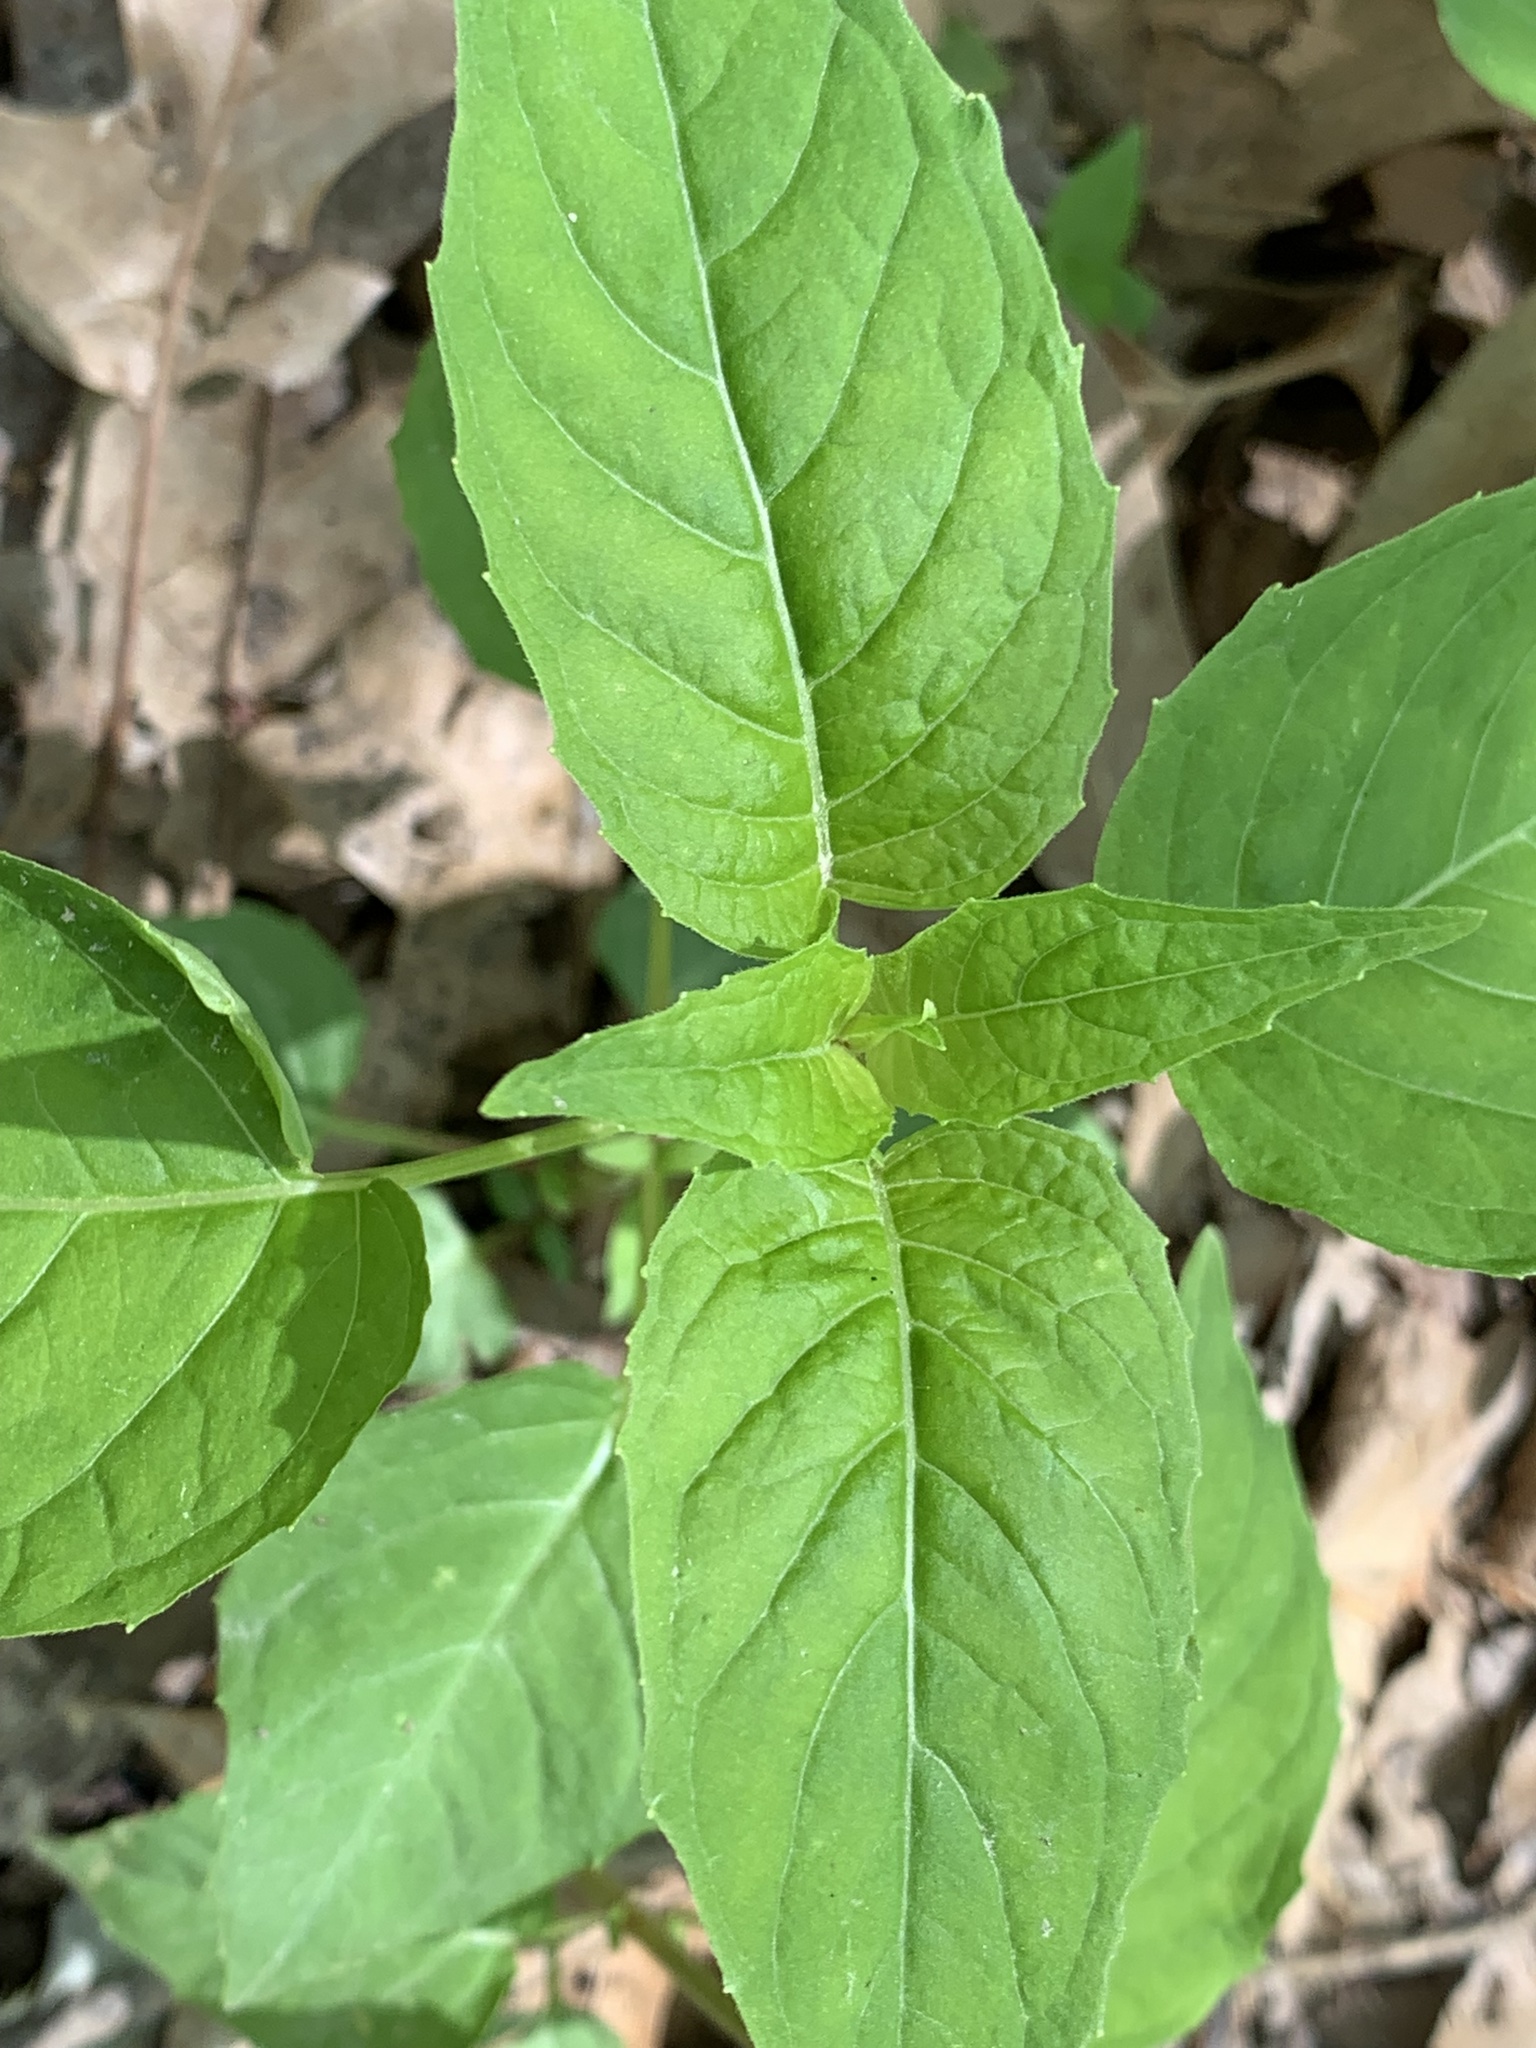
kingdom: Plantae
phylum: Tracheophyta
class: Magnoliopsida
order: Myrtales
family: Onagraceae
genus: Circaea
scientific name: Circaea canadensis
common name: Broad-leaved enchanter's nightshade
